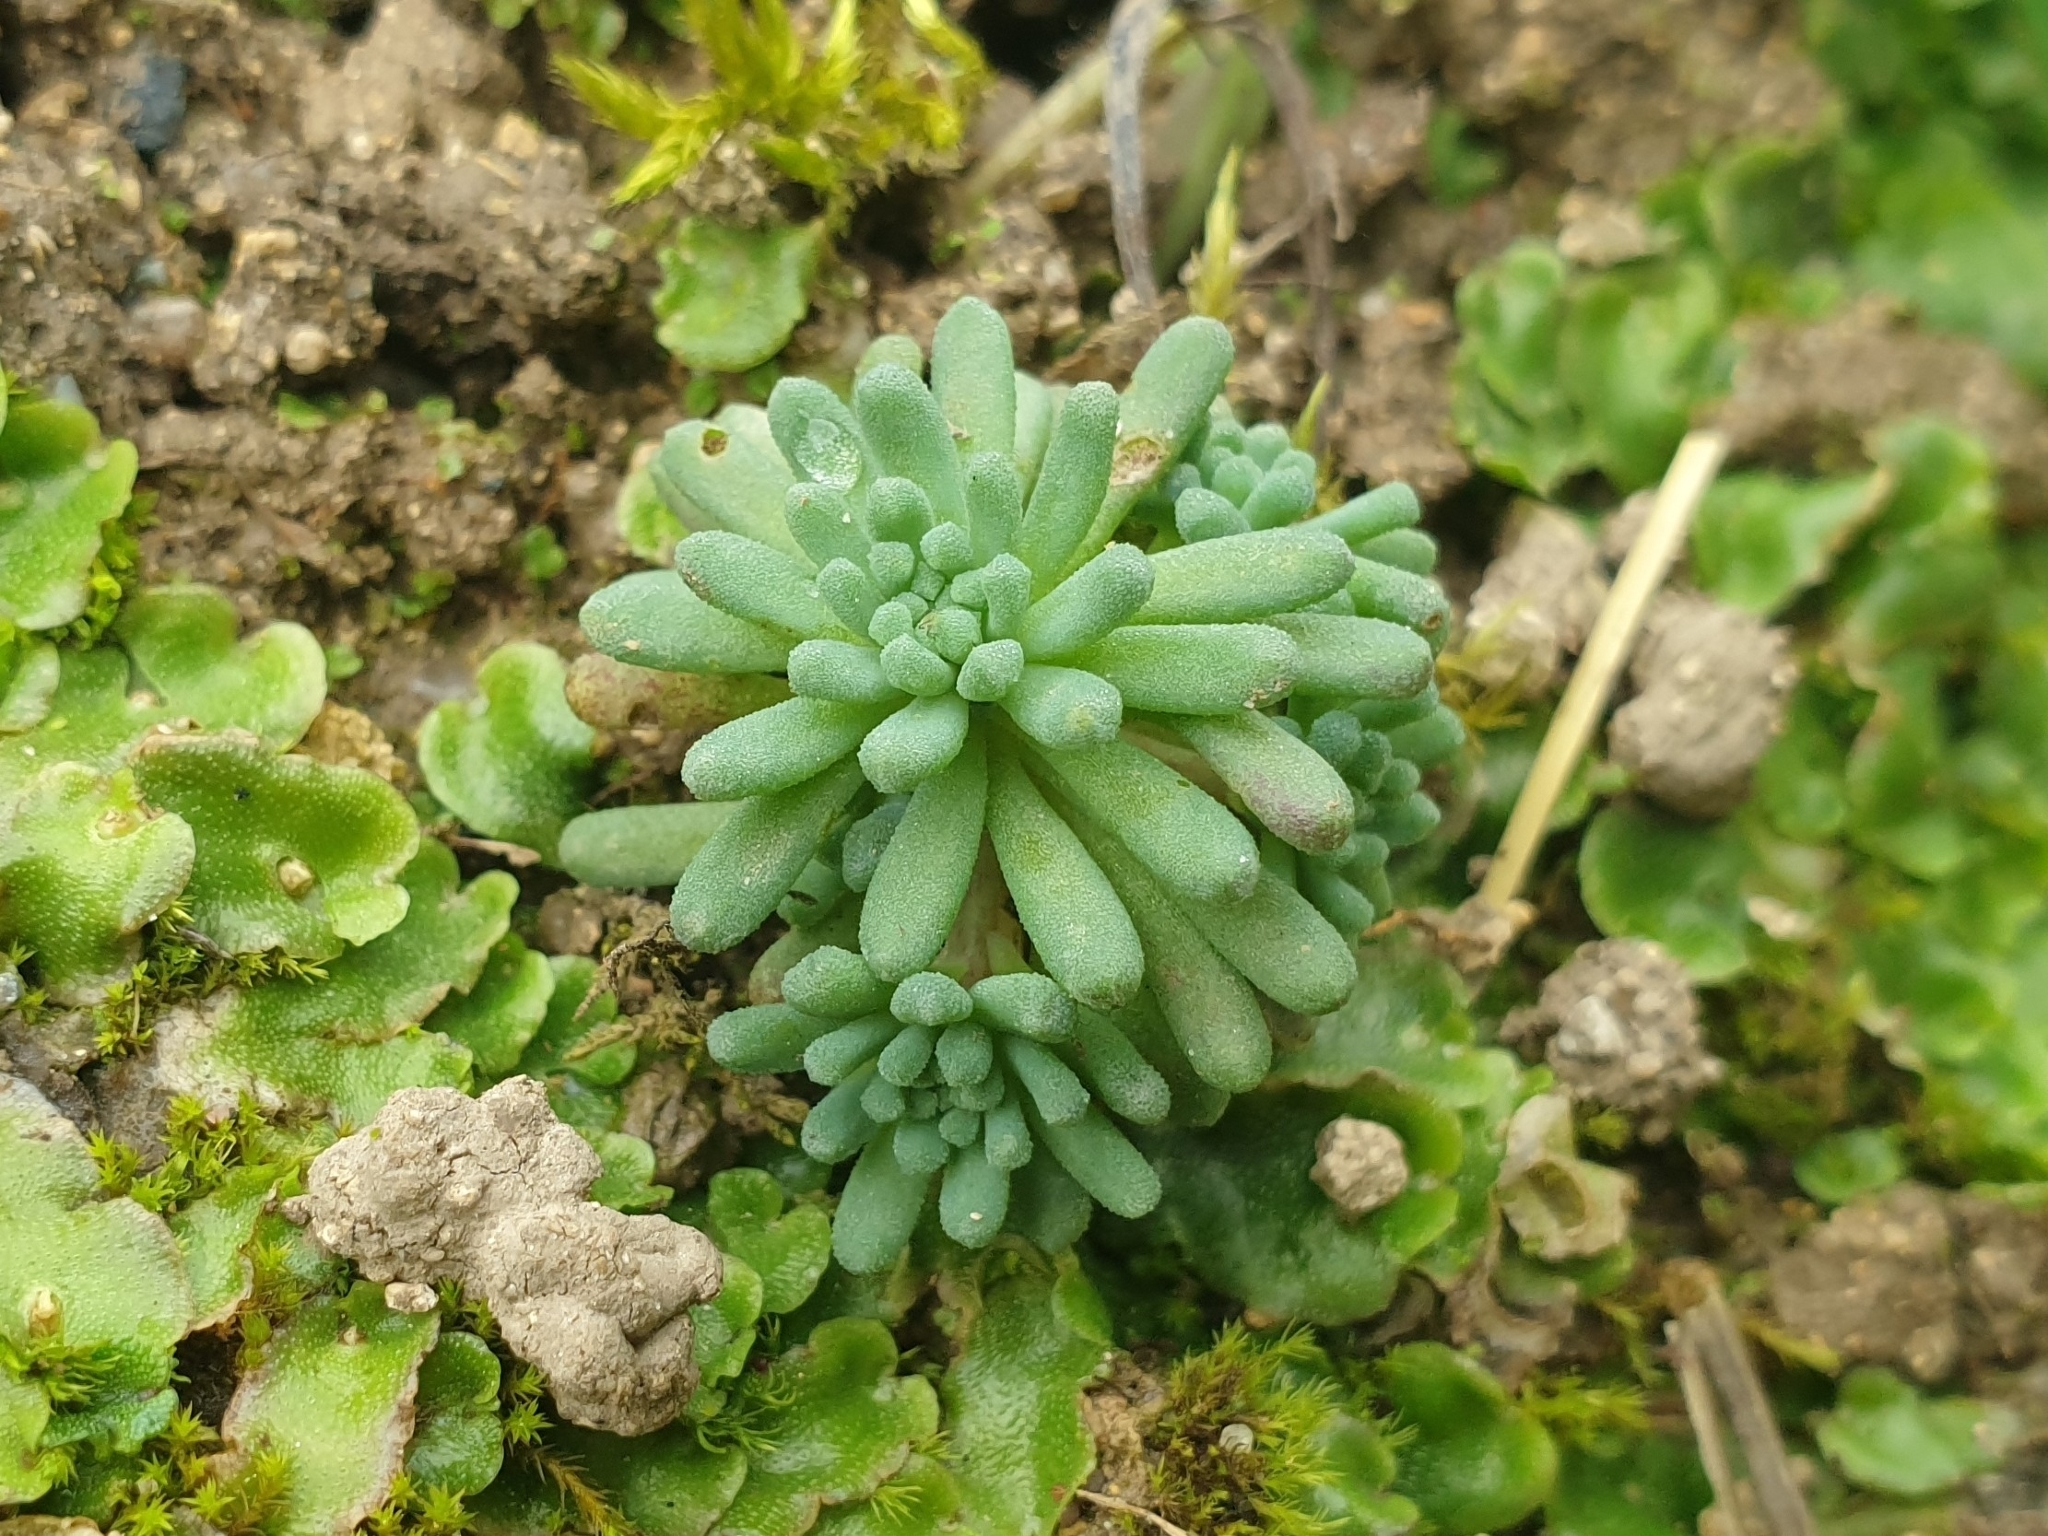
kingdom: Plantae
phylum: Tracheophyta
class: Magnoliopsida
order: Saxifragales
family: Crassulaceae
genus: Sedum
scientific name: Sedum rubens
